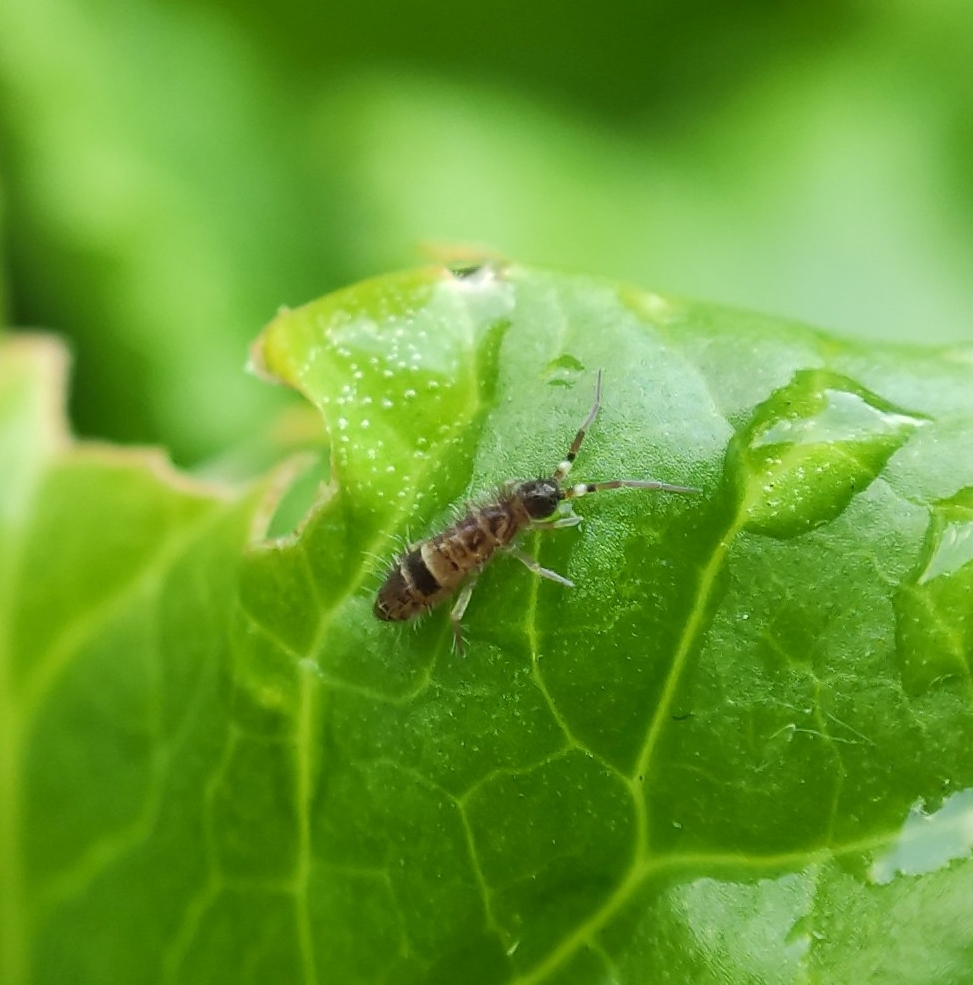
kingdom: Animalia
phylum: Arthropoda
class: Collembola
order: Entomobryomorpha
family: Orchesellidae
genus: Orchesella
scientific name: Orchesella cincta
